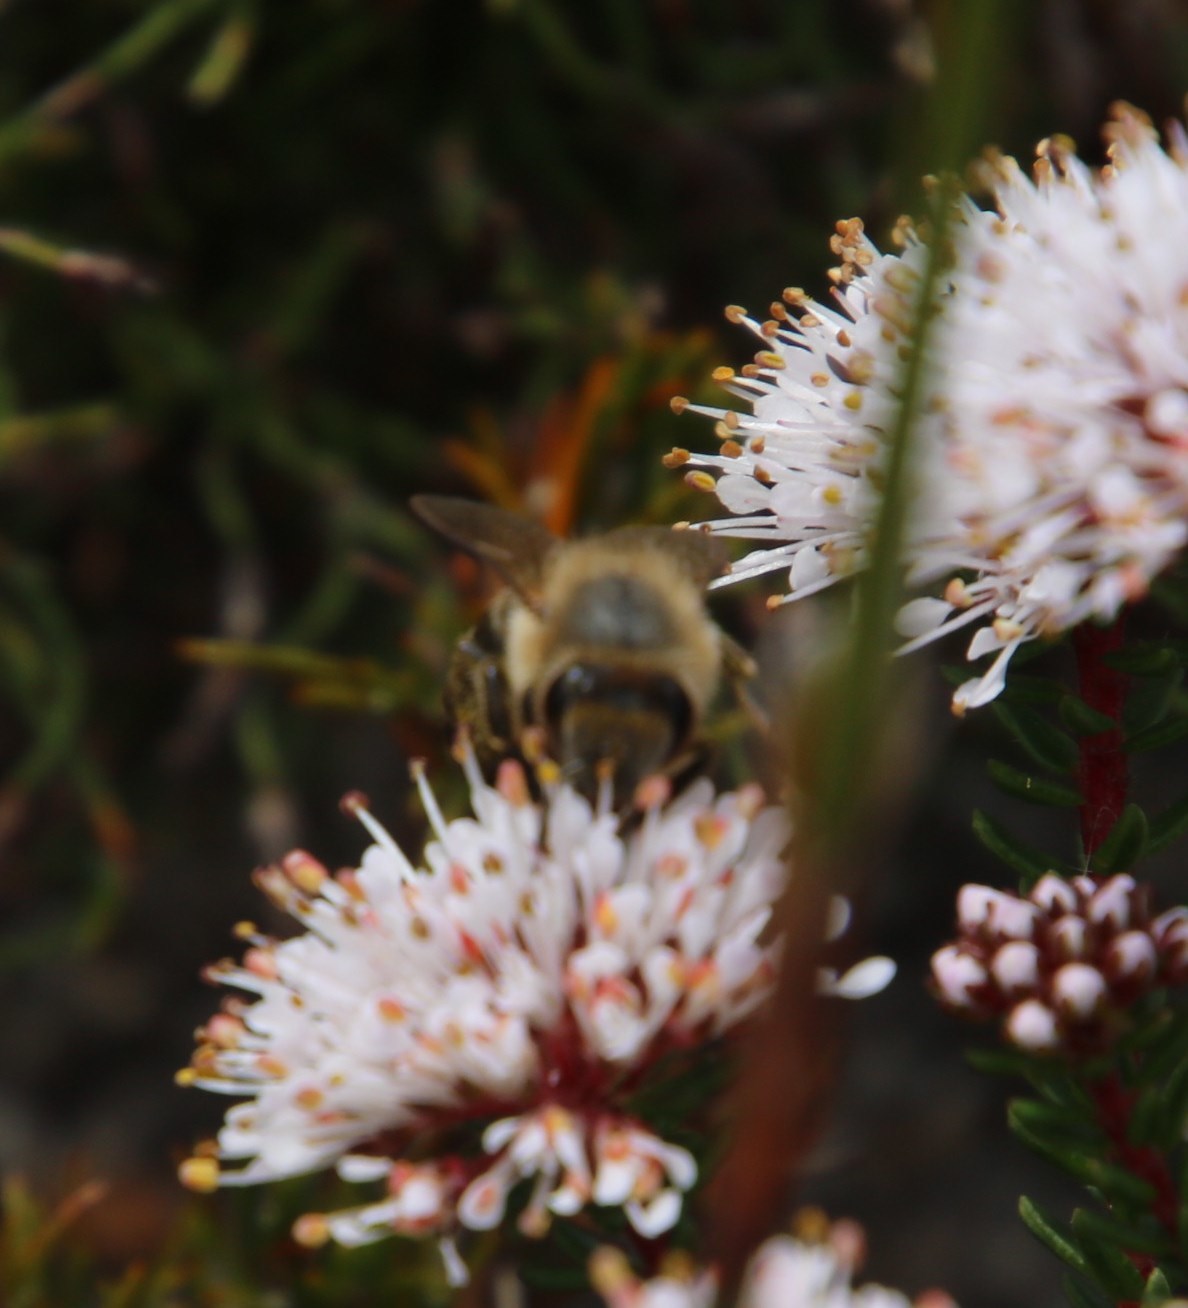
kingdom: Animalia
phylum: Arthropoda
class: Insecta
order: Hymenoptera
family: Apidae
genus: Apis
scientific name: Apis mellifera
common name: Honey bee
